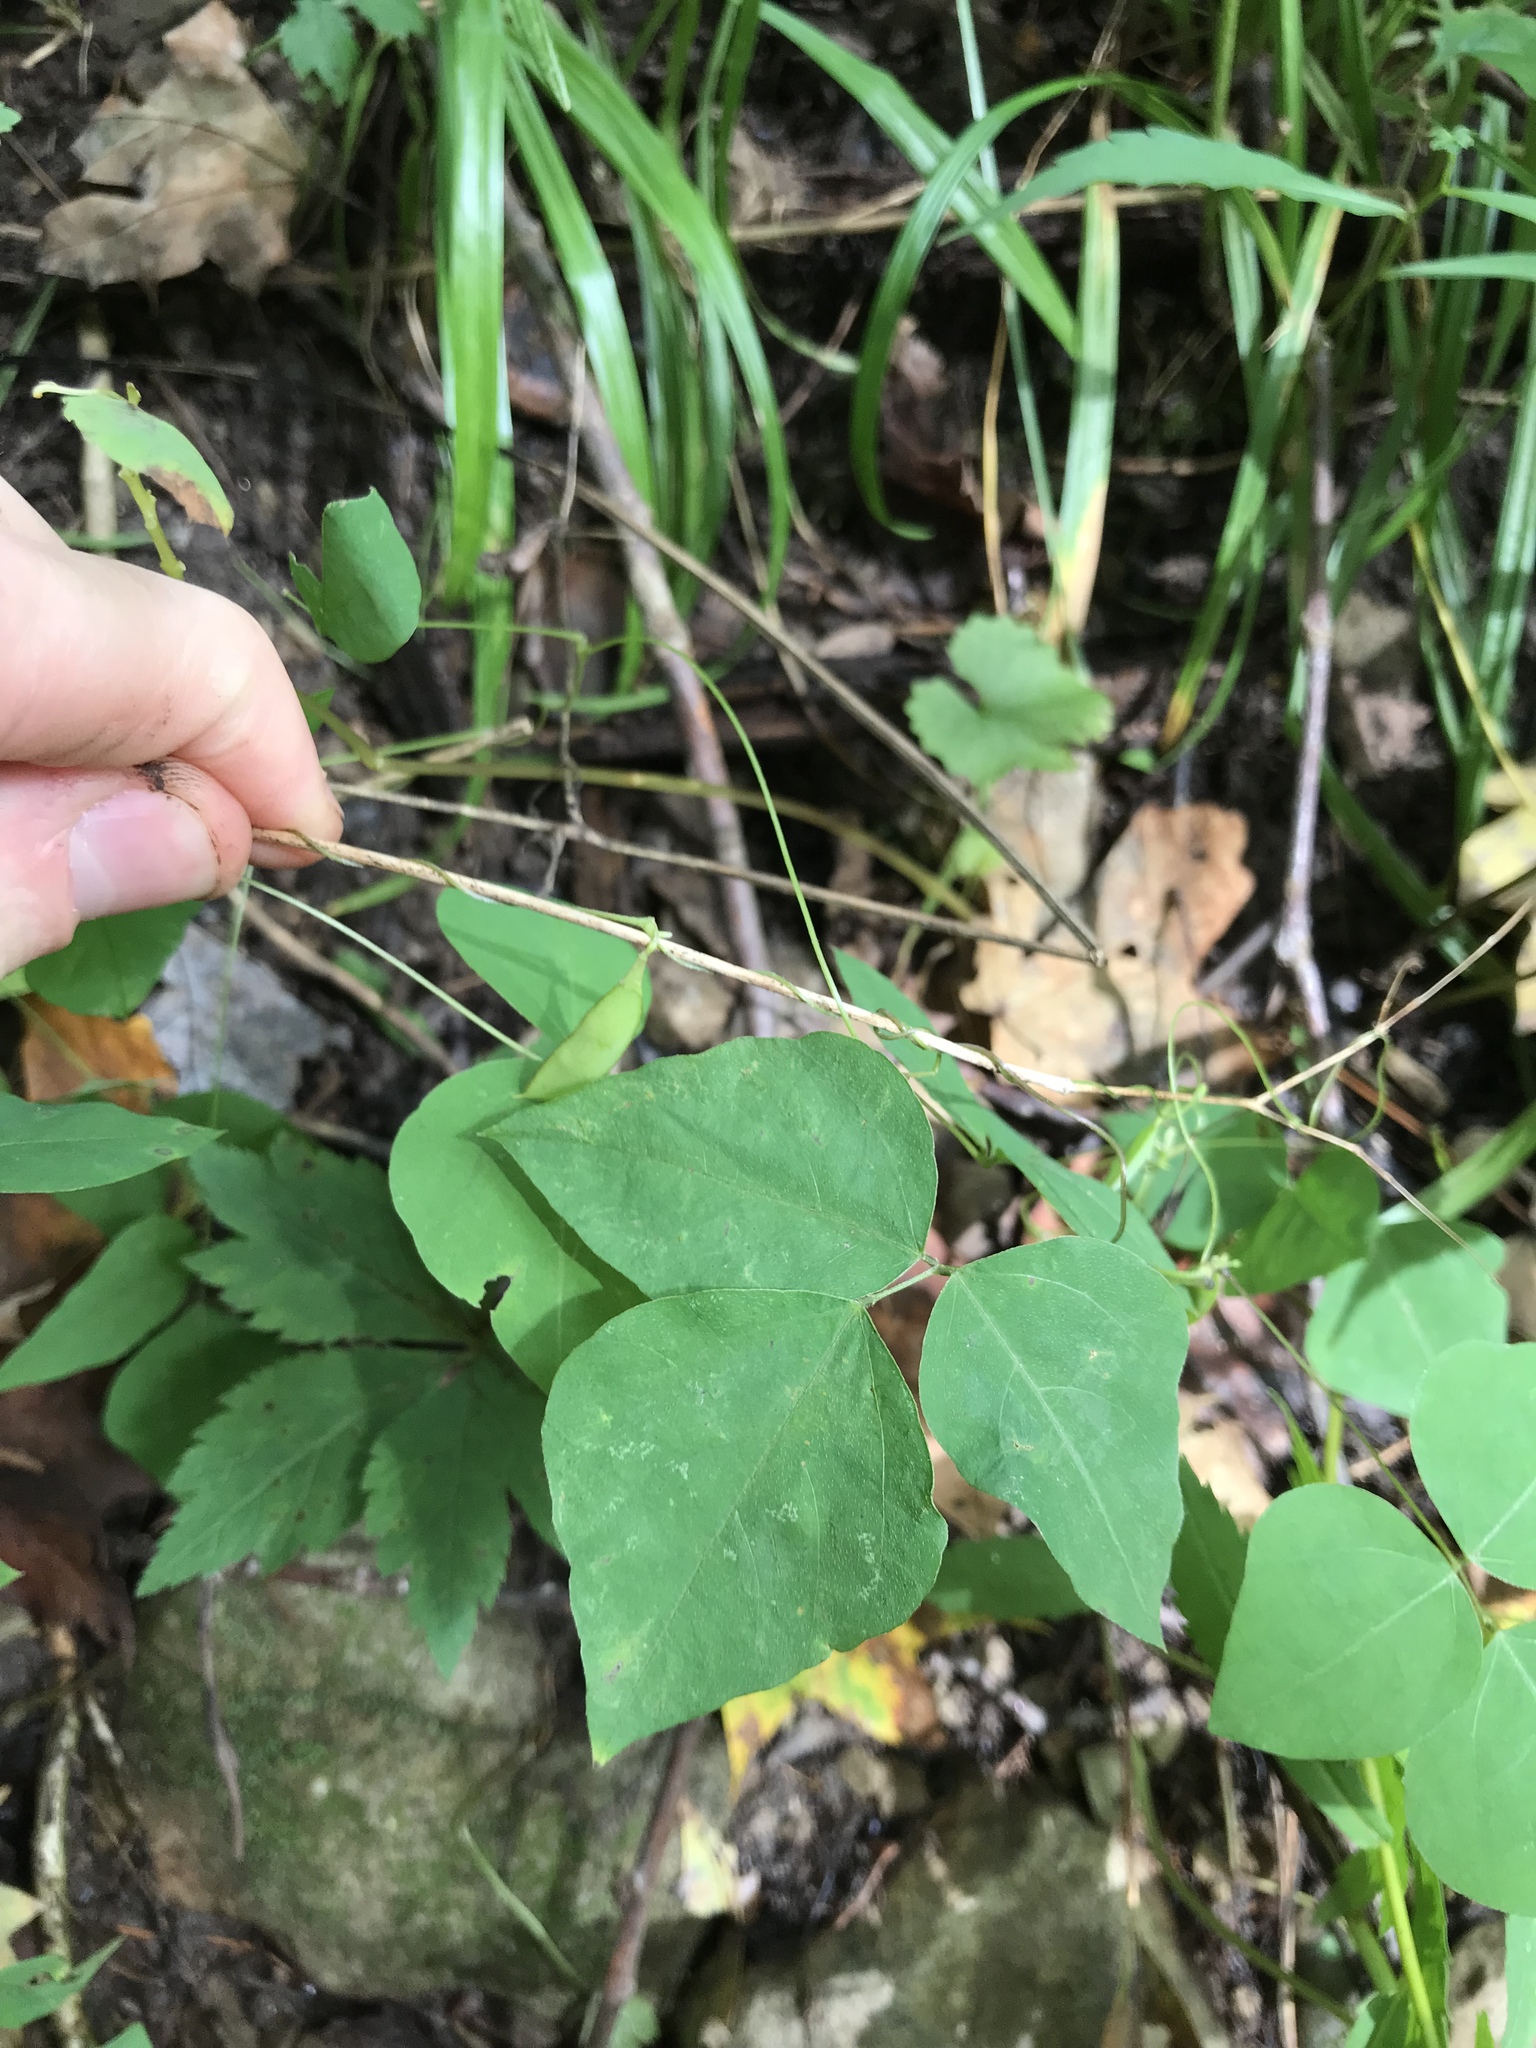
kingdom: Plantae
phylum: Tracheophyta
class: Magnoliopsida
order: Fabales
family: Fabaceae
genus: Amphicarpaea
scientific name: Amphicarpaea bracteata
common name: American hog peanut
